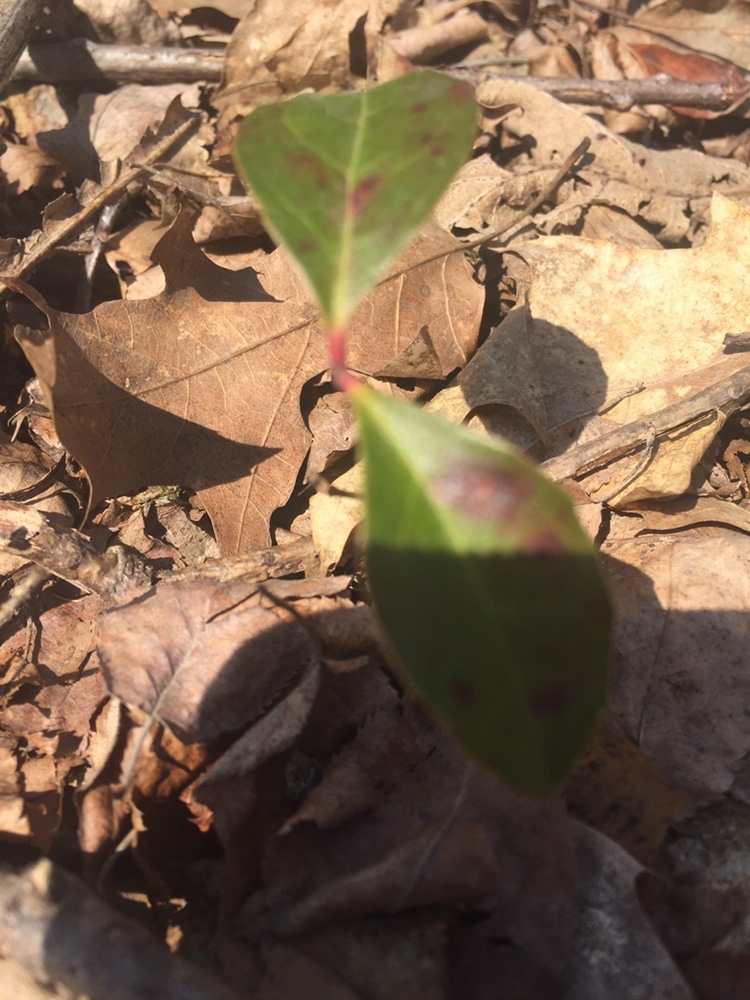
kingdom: Plantae
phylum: Tracheophyta
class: Magnoliopsida
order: Ericales
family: Ericaceae
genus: Gaultheria
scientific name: Gaultheria procumbens
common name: Checkerberry
